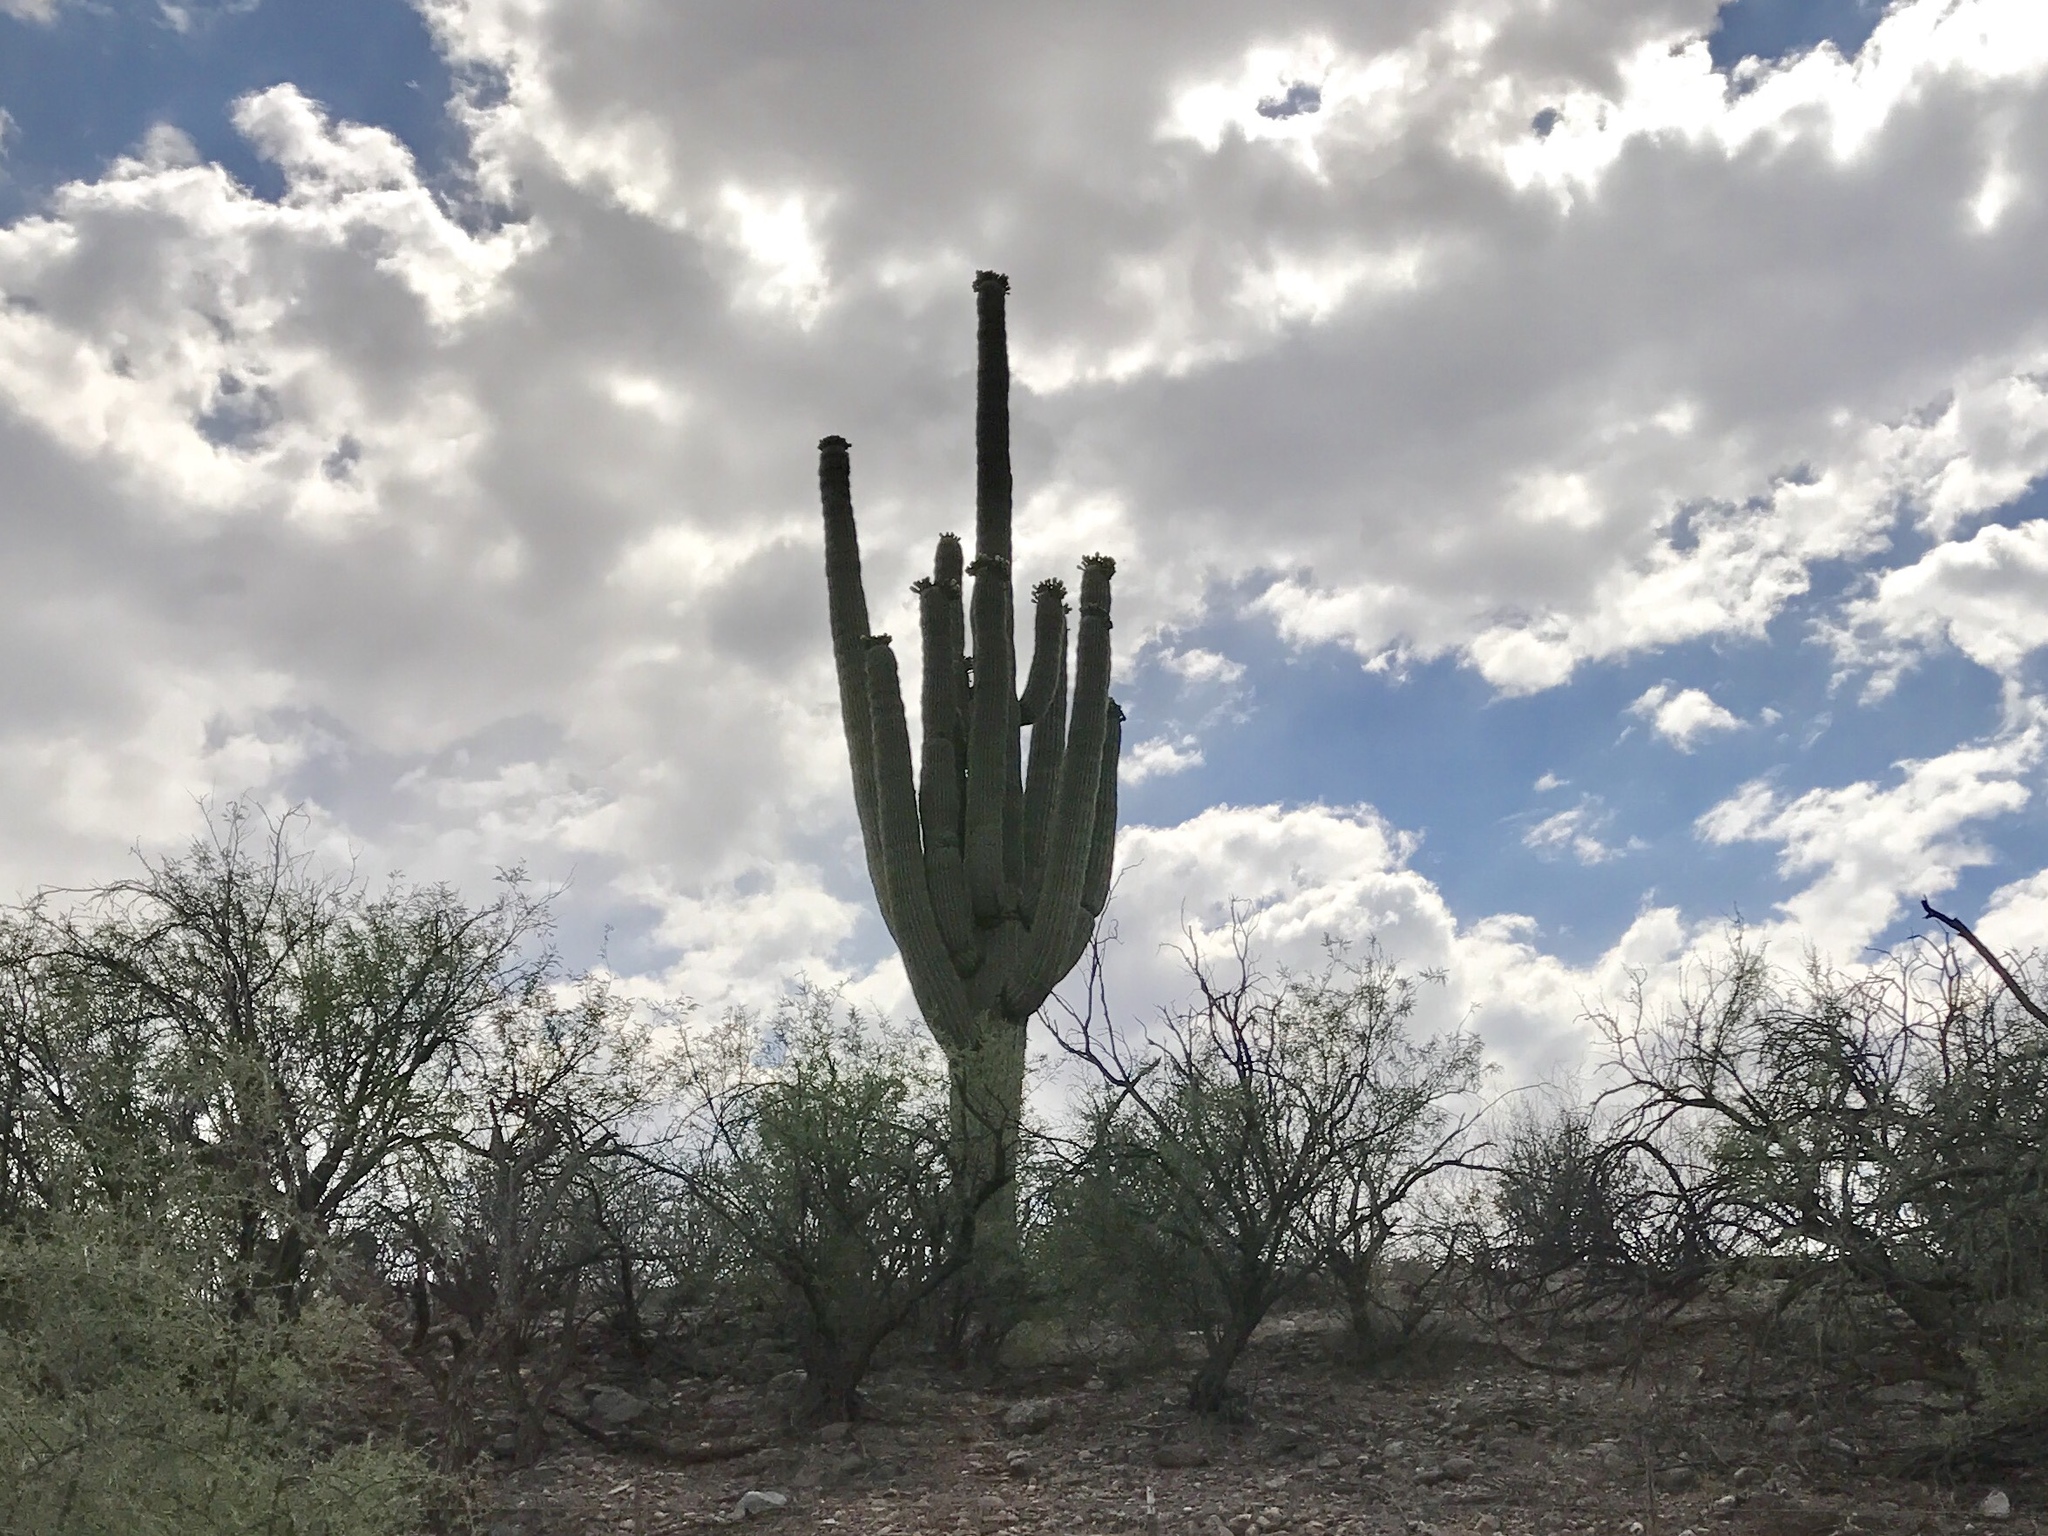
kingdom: Plantae
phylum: Tracheophyta
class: Magnoliopsida
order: Caryophyllales
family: Cactaceae
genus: Carnegiea
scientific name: Carnegiea gigantea
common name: Saguaro
